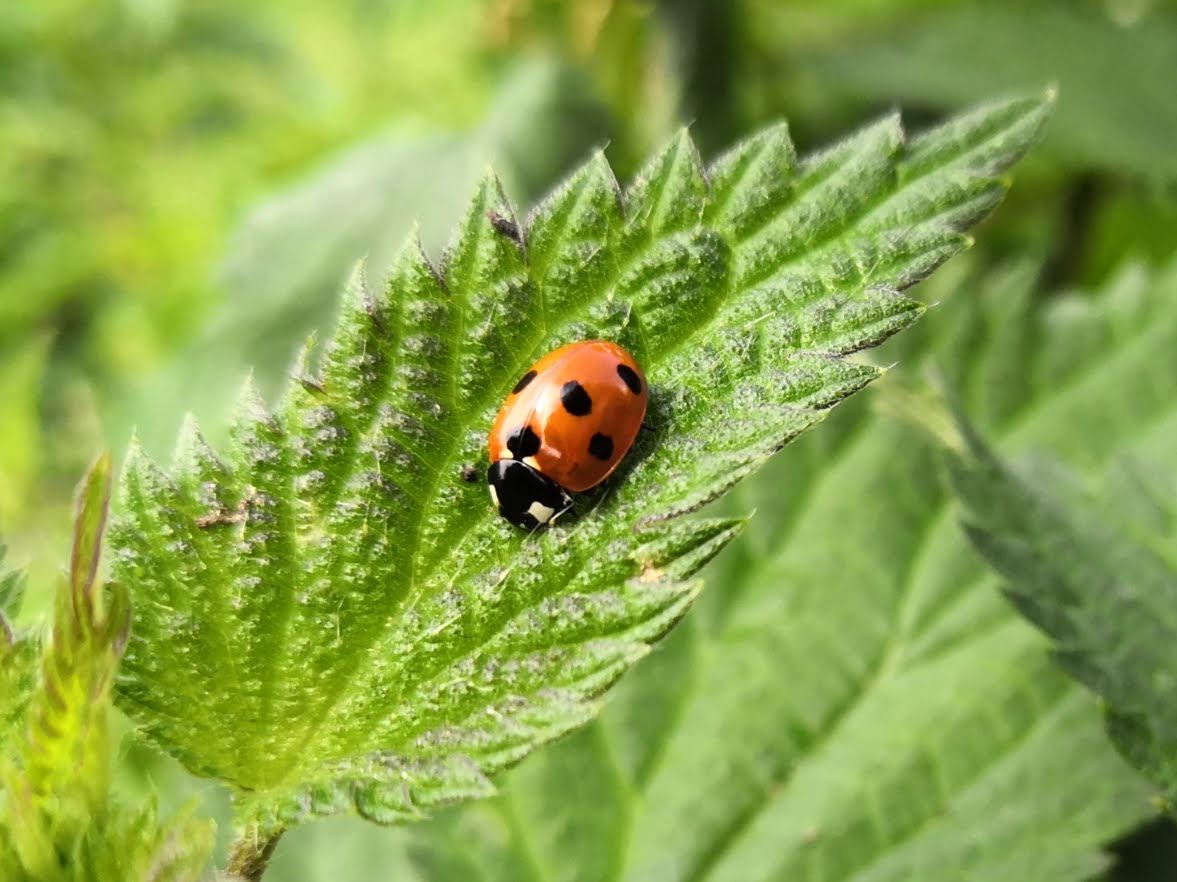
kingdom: Animalia
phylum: Arthropoda
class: Insecta
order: Coleoptera
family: Coccinellidae
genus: Coccinella
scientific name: Coccinella septempunctata
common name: Sevenspotted lady beetle
